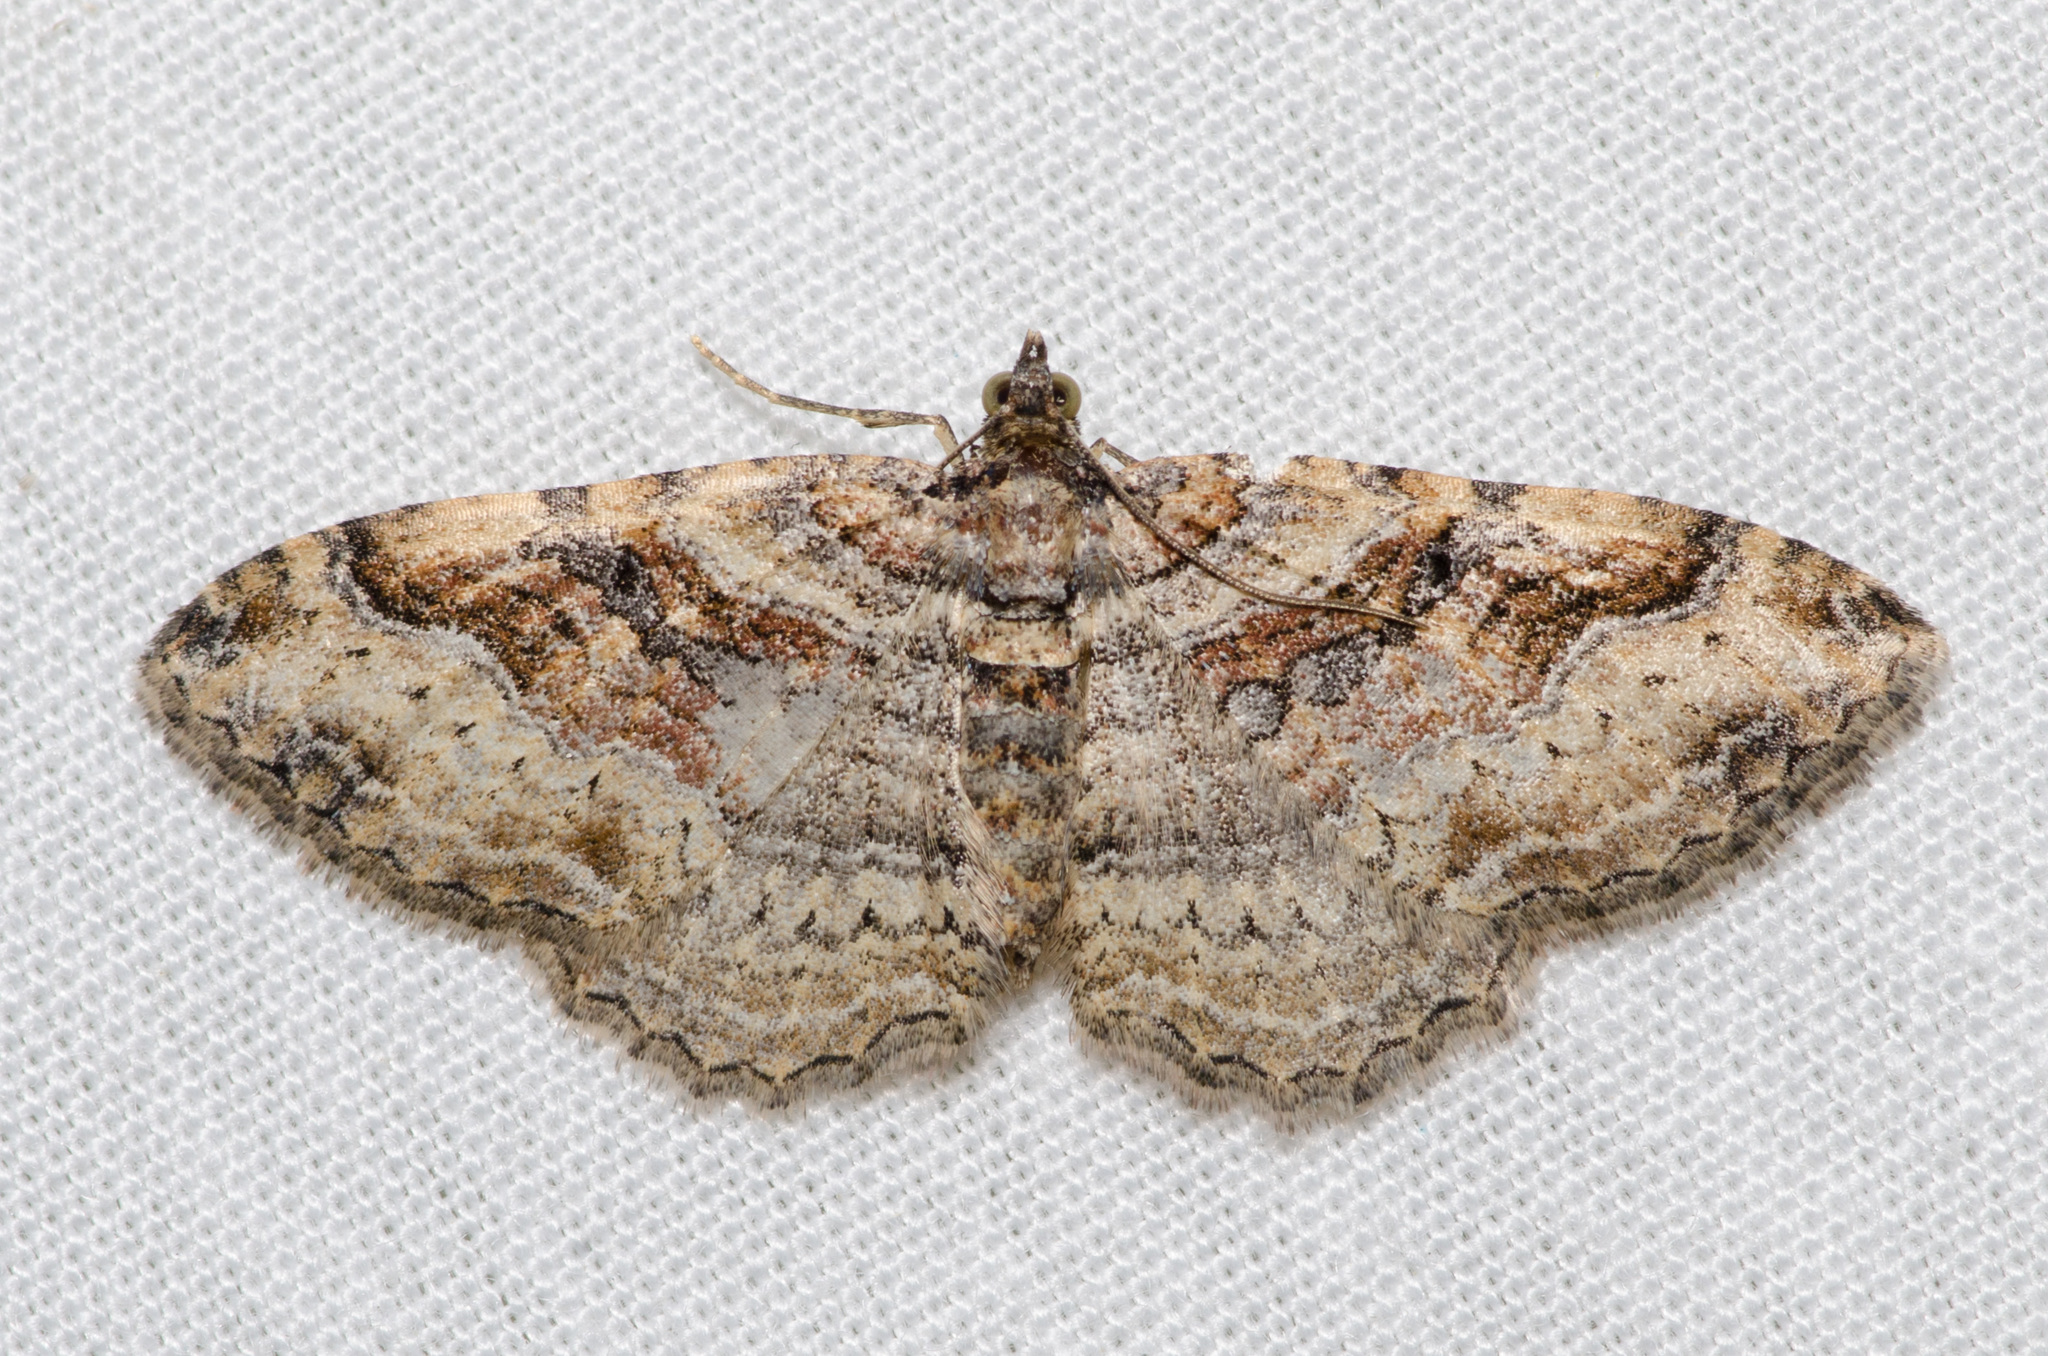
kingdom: Animalia
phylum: Arthropoda
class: Insecta
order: Lepidoptera
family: Geometridae
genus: Costaconvexa
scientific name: Costaconvexa centrostrigaria
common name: Bent-line carpet
